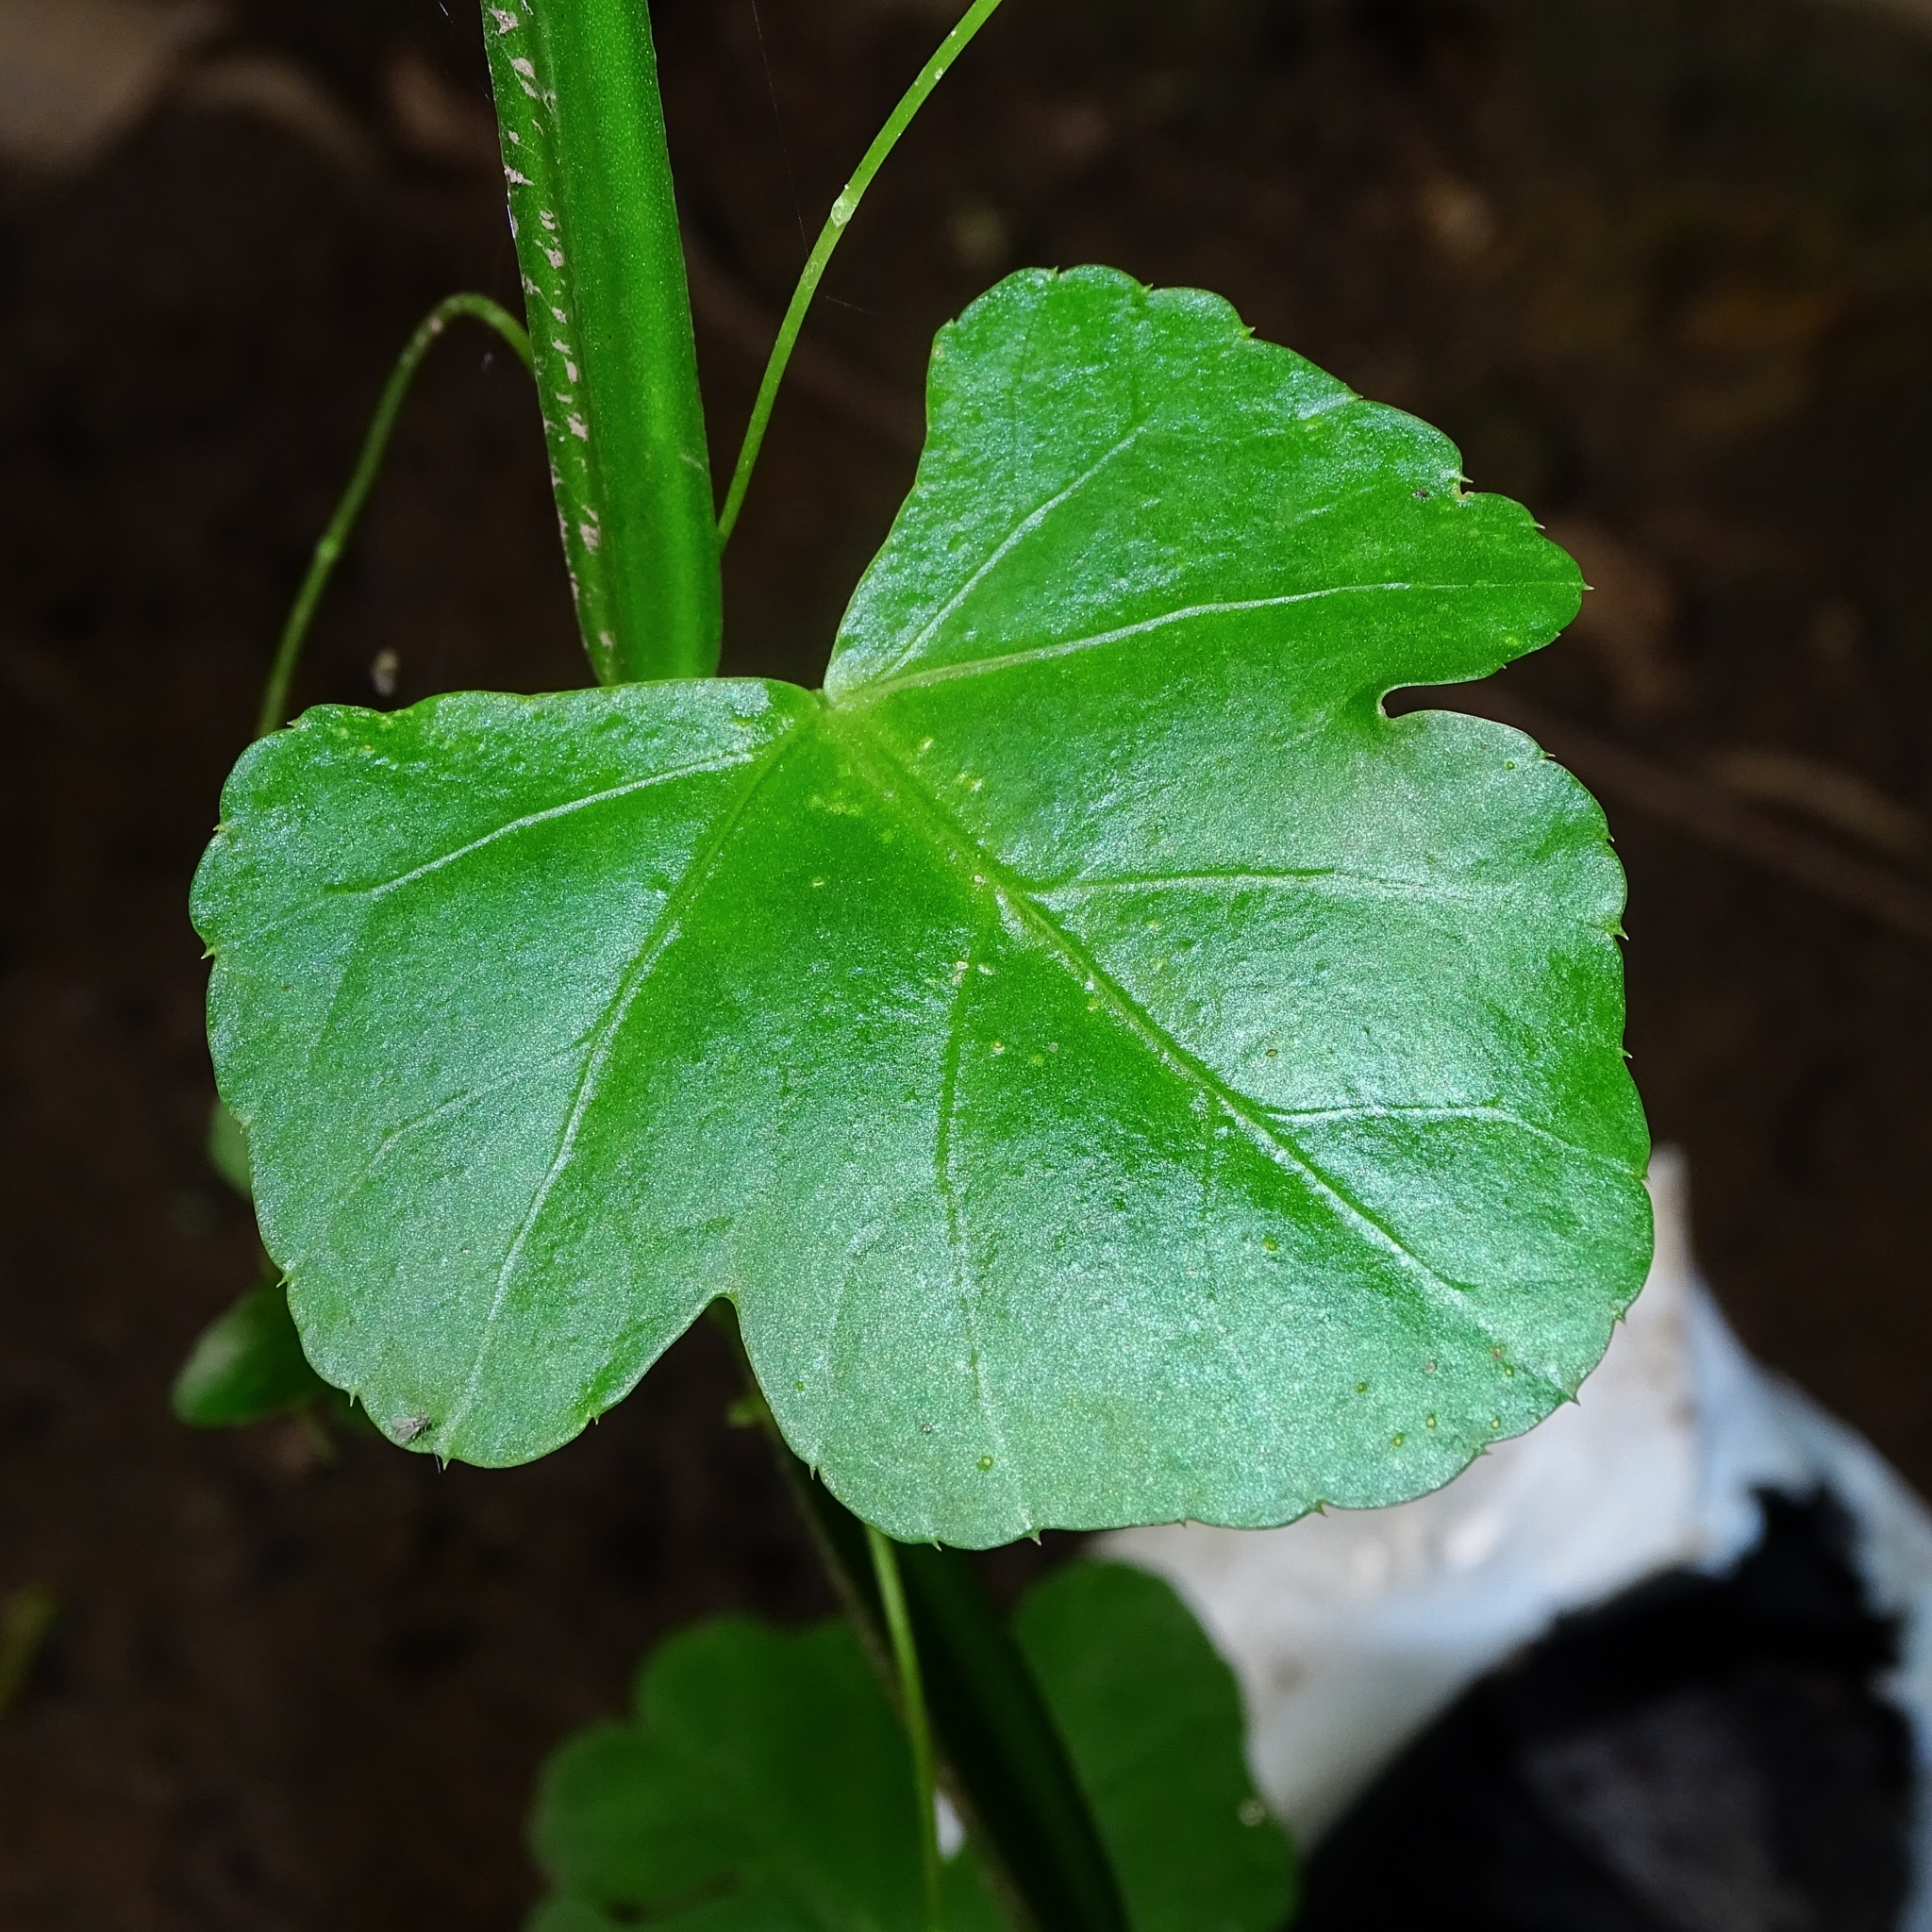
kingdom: Plantae
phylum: Tracheophyta
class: Magnoliopsida
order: Vitales
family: Vitaceae
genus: Cissus
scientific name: Cissus quadrangularis
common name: Veldt-grape
